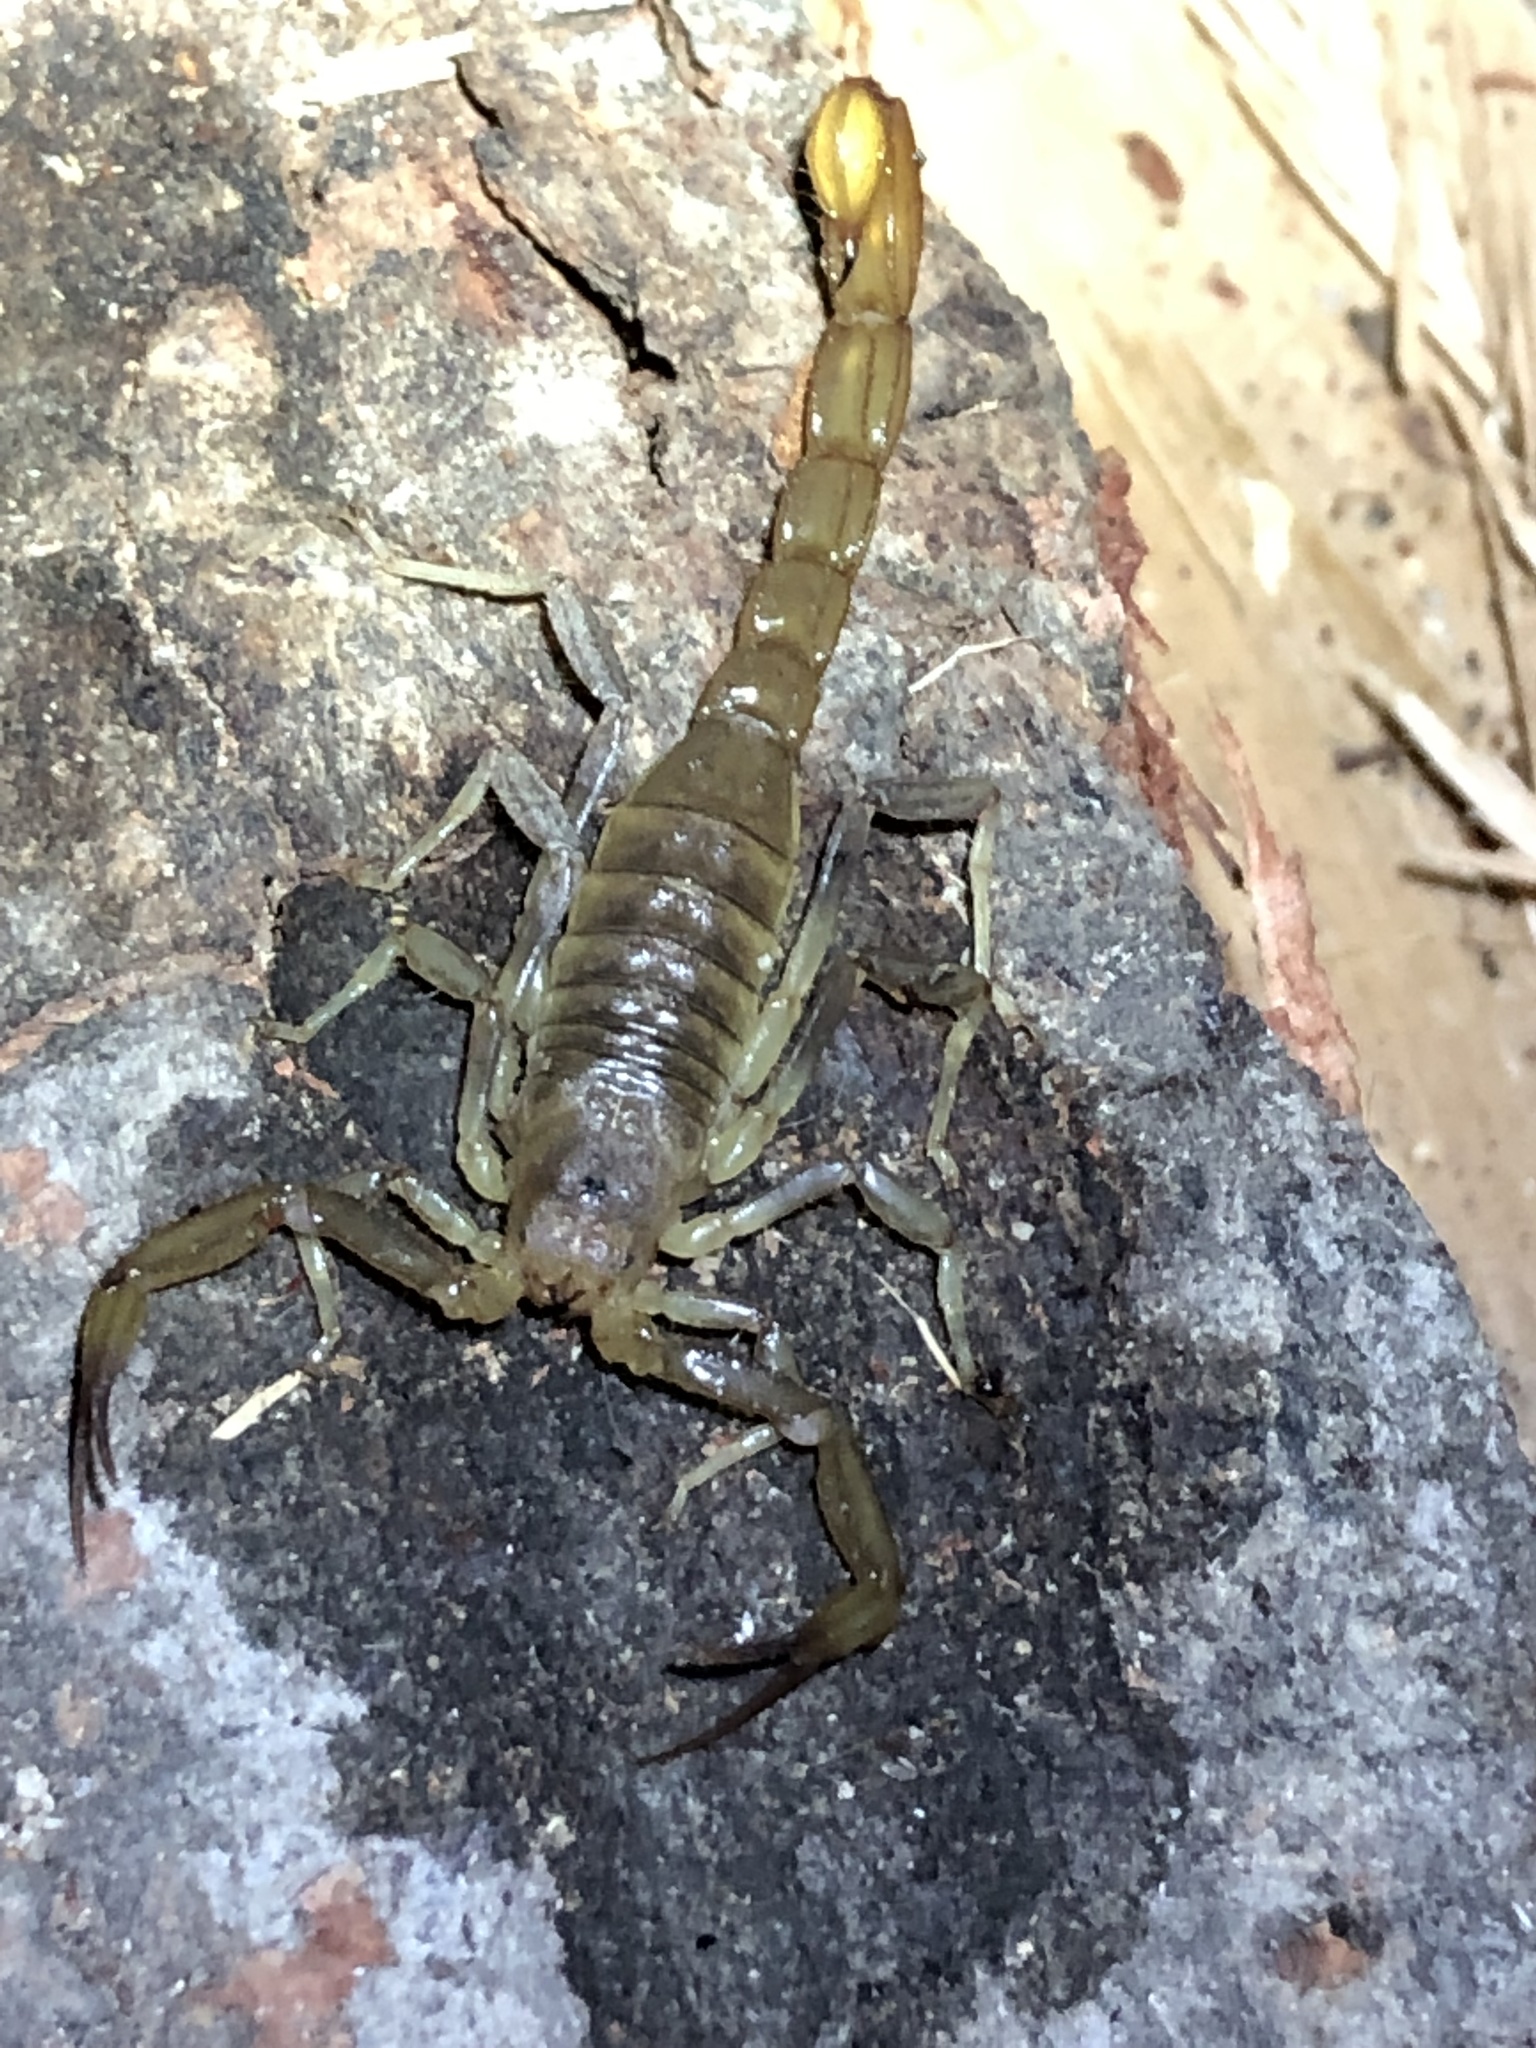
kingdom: Animalia
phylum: Arthropoda
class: Arachnida
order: Scorpiones
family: Vaejovidae
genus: Paravaejovis
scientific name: Paravaejovis puritanus
